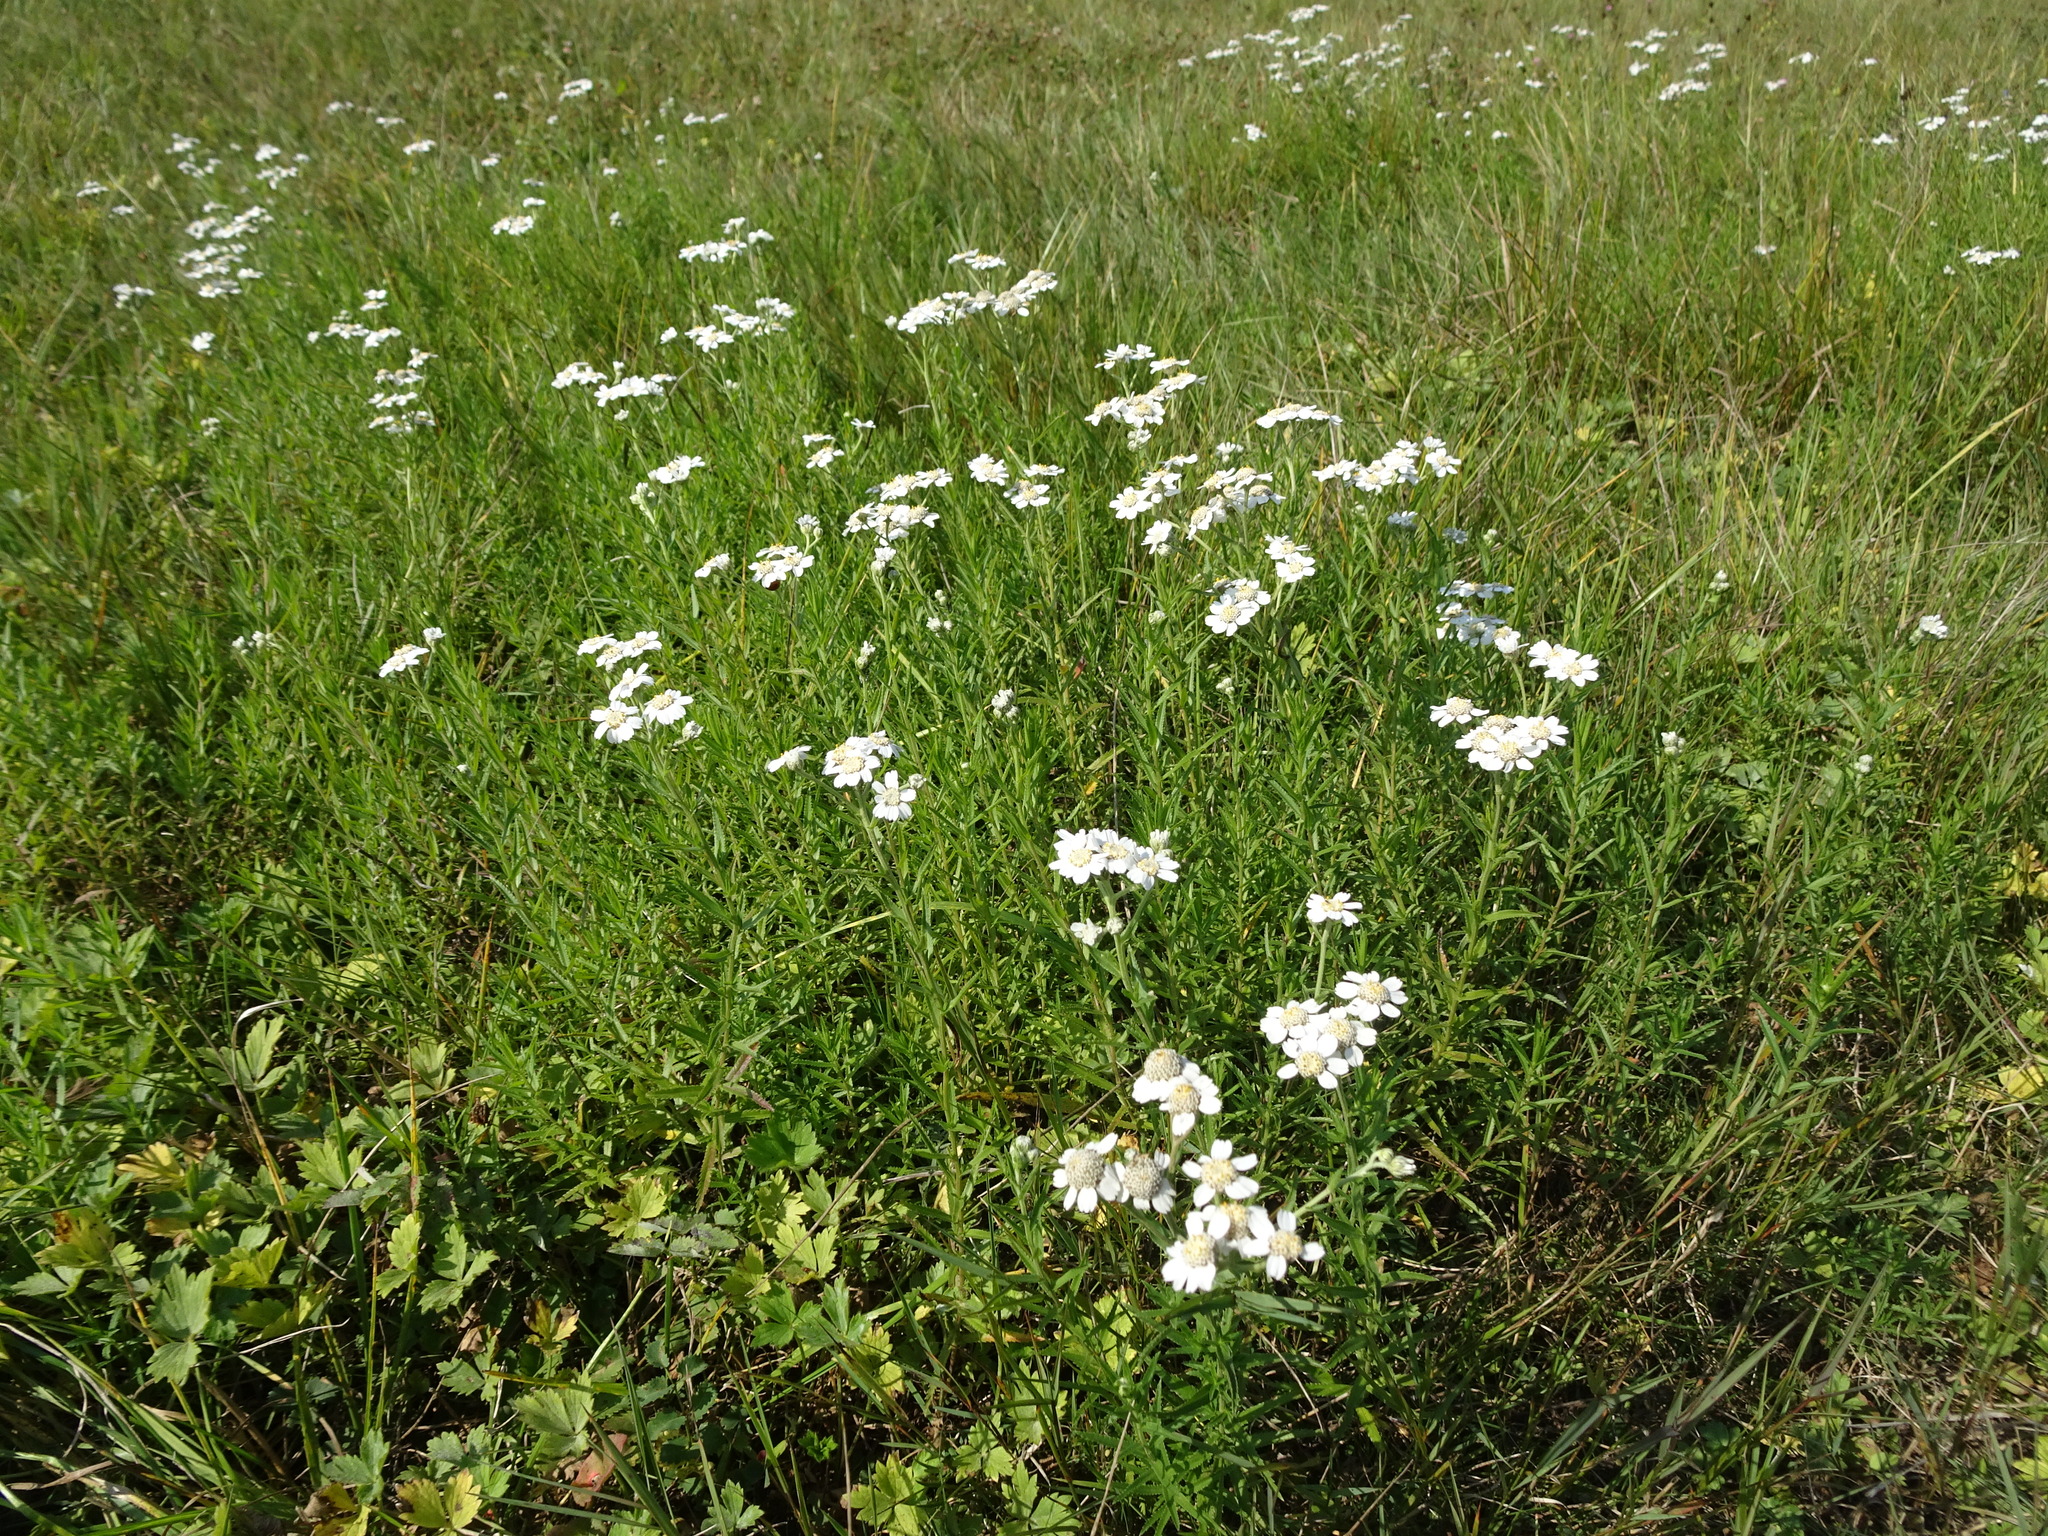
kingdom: Plantae
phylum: Tracheophyta
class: Magnoliopsida
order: Asterales
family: Asteraceae
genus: Achillea
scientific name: Achillea ptarmica
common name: Sneezeweed
